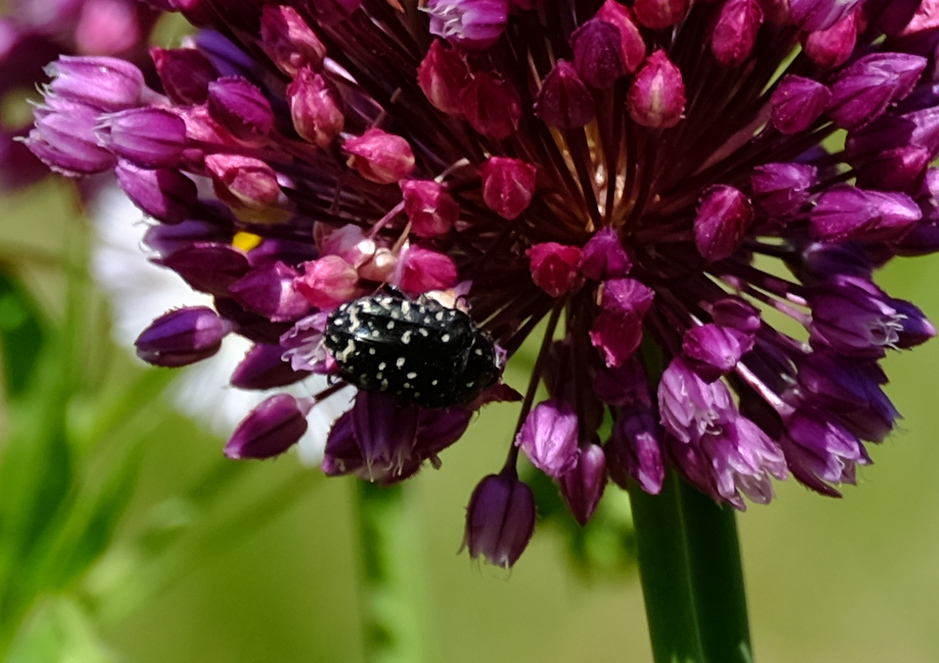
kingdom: Animalia
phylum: Arthropoda
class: Insecta
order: Coleoptera
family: Scarabaeidae
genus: Oxythyrea
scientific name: Oxythyrea funesta
